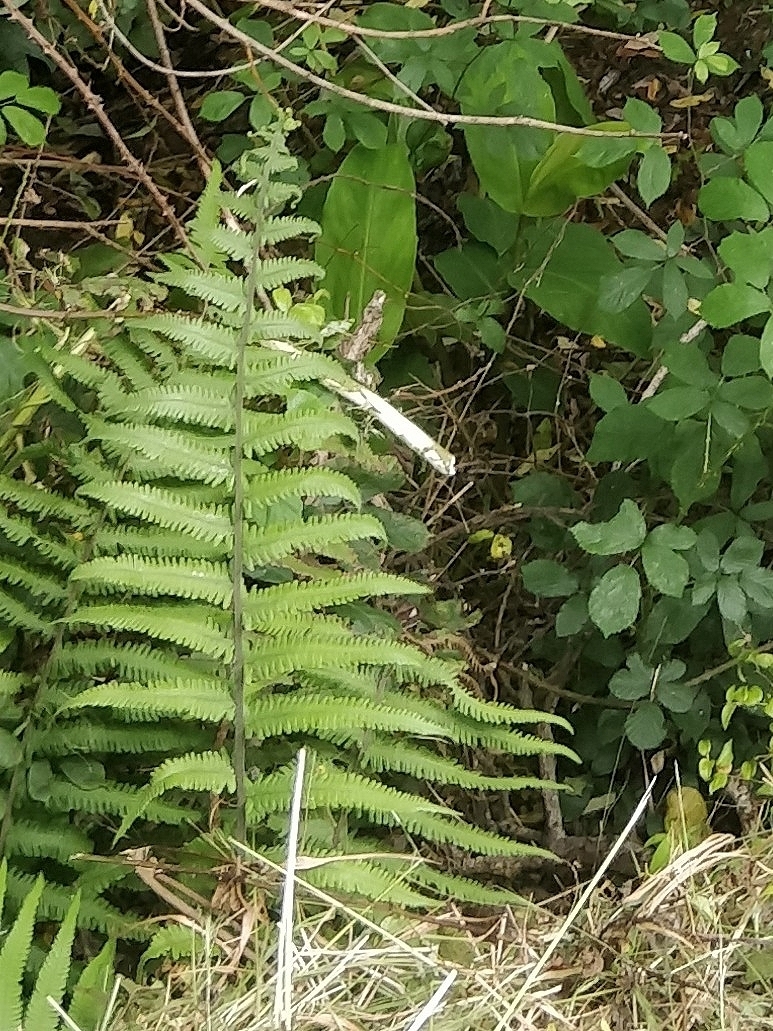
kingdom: Plantae
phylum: Tracheophyta
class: Polypodiopsida
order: Polypodiales
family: Dryopteridaceae
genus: Dryopteris
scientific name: Dryopteris affinis
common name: Scaly male fern
